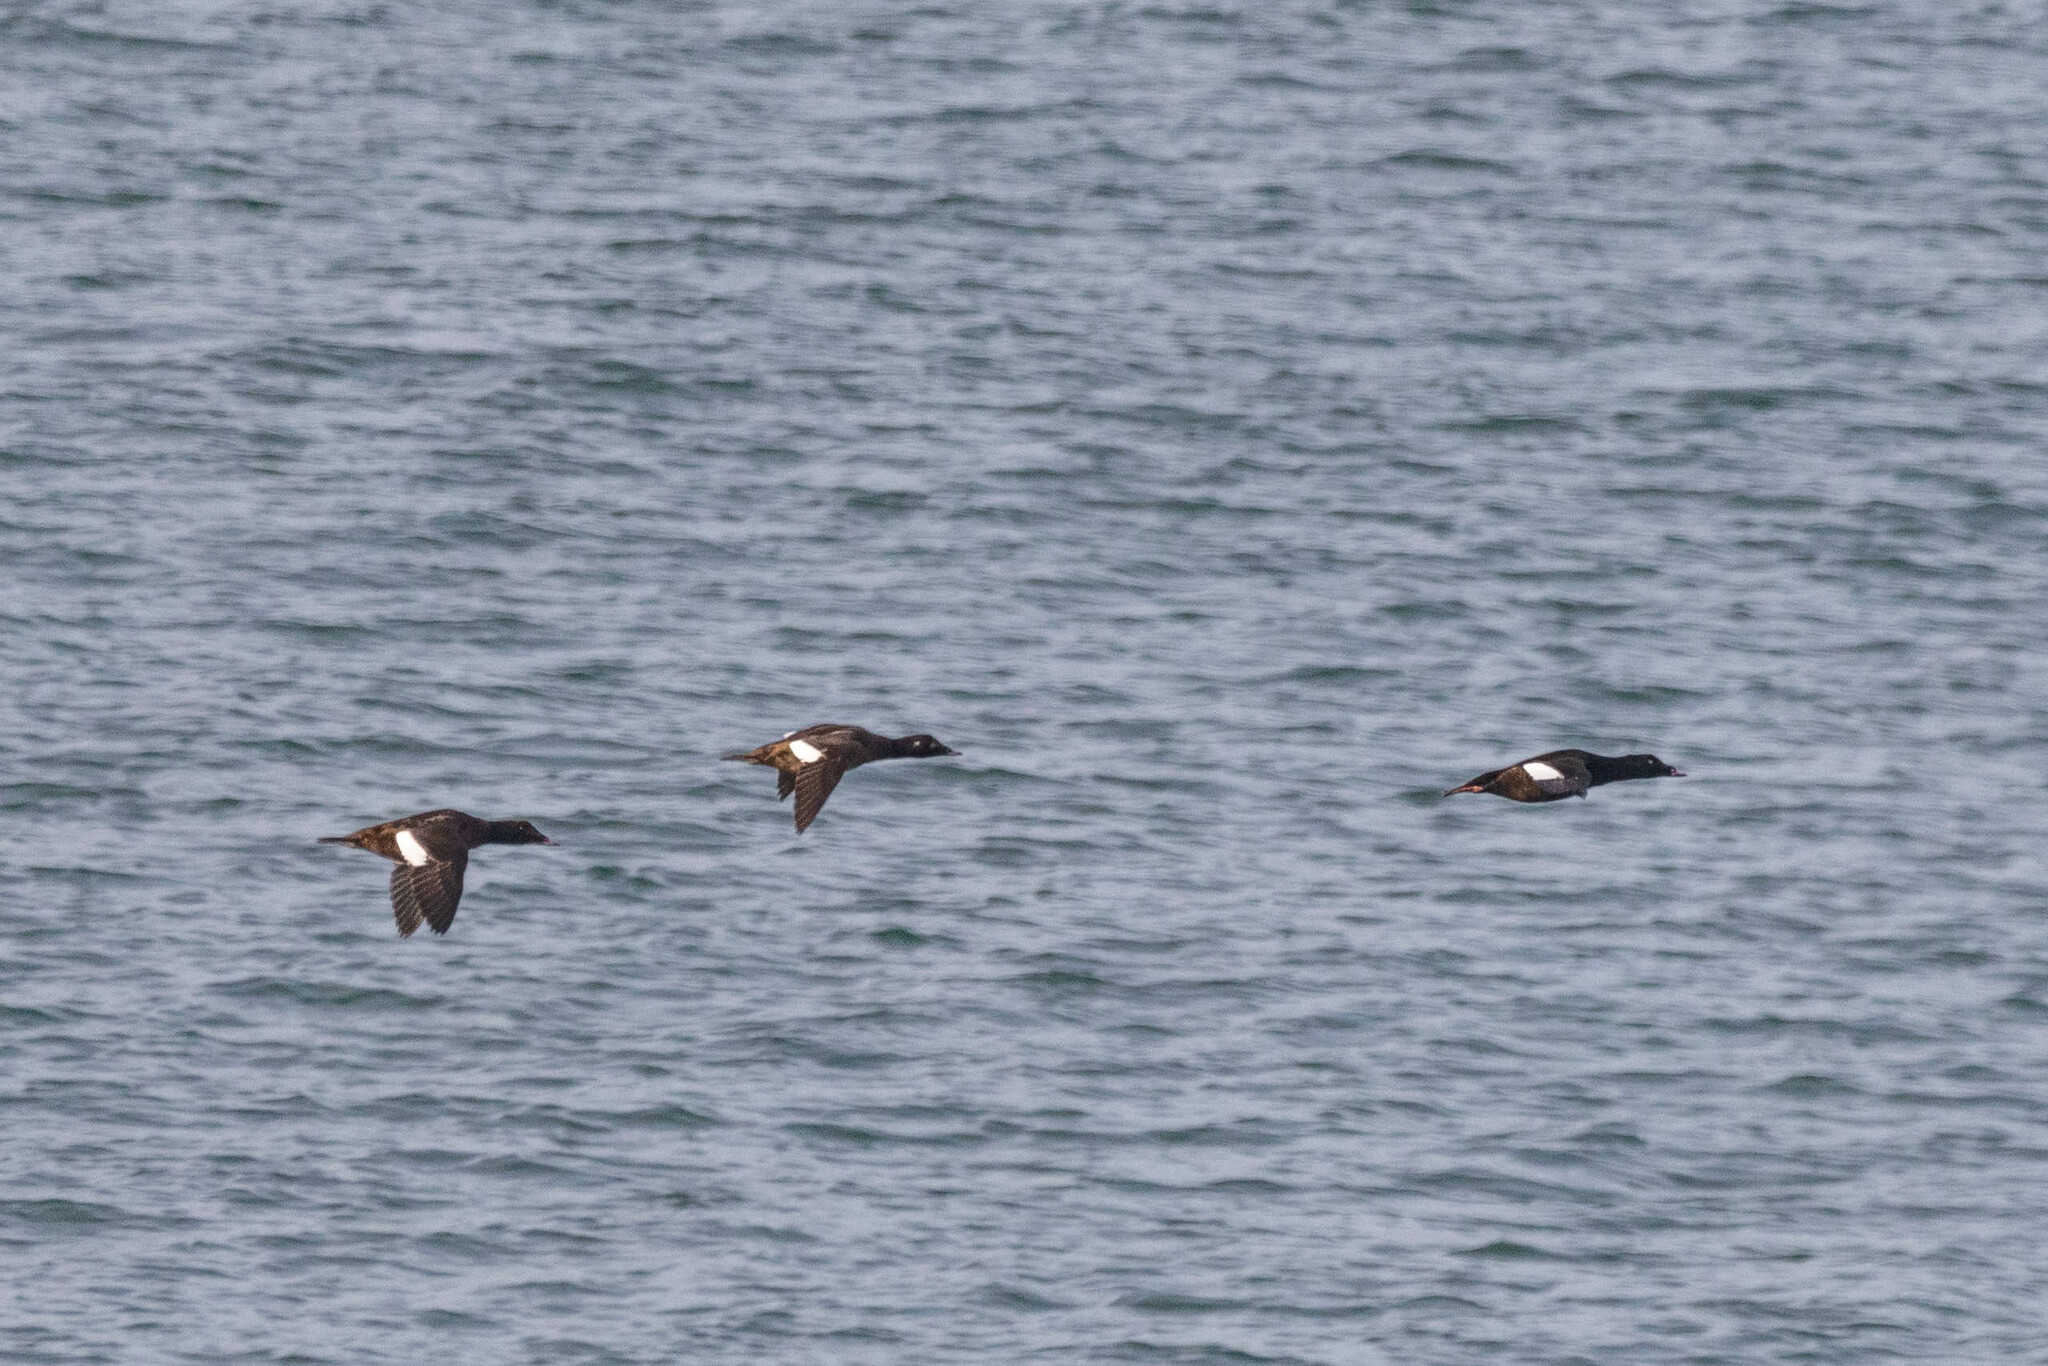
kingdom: Animalia
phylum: Chordata
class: Aves
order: Anseriformes
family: Anatidae
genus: Melanitta
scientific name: Melanitta deglandi
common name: White-winged scoter
